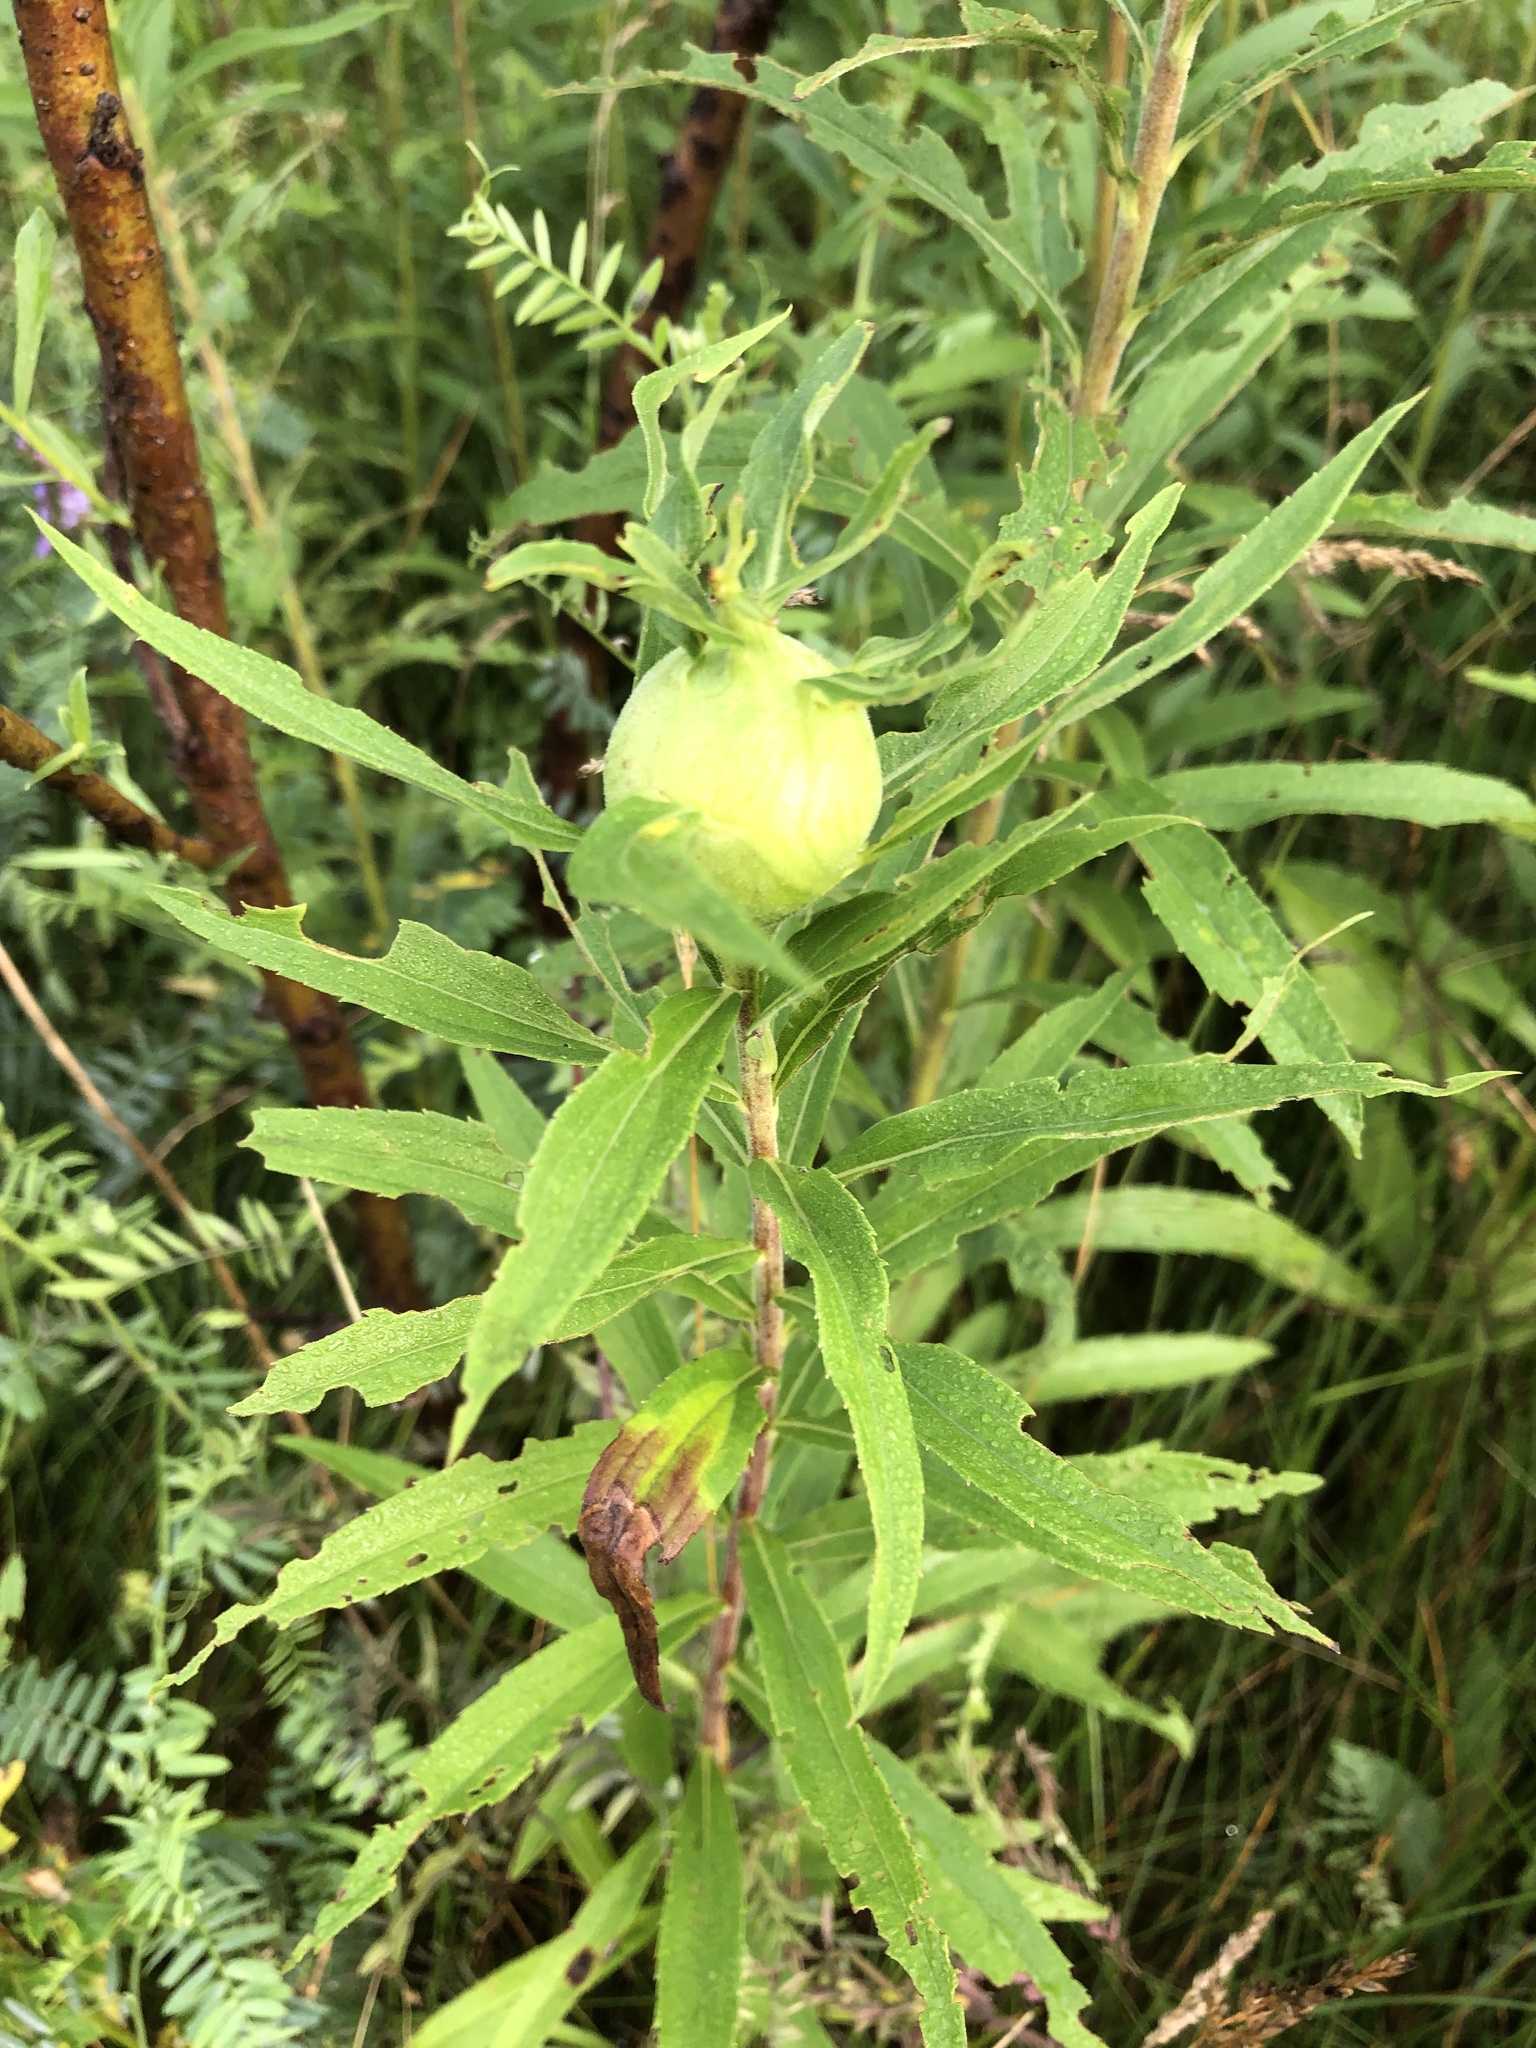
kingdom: Animalia
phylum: Arthropoda
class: Insecta
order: Diptera
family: Tephritidae
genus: Eurosta
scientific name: Eurosta solidaginis
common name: Goldenrod gall fly
